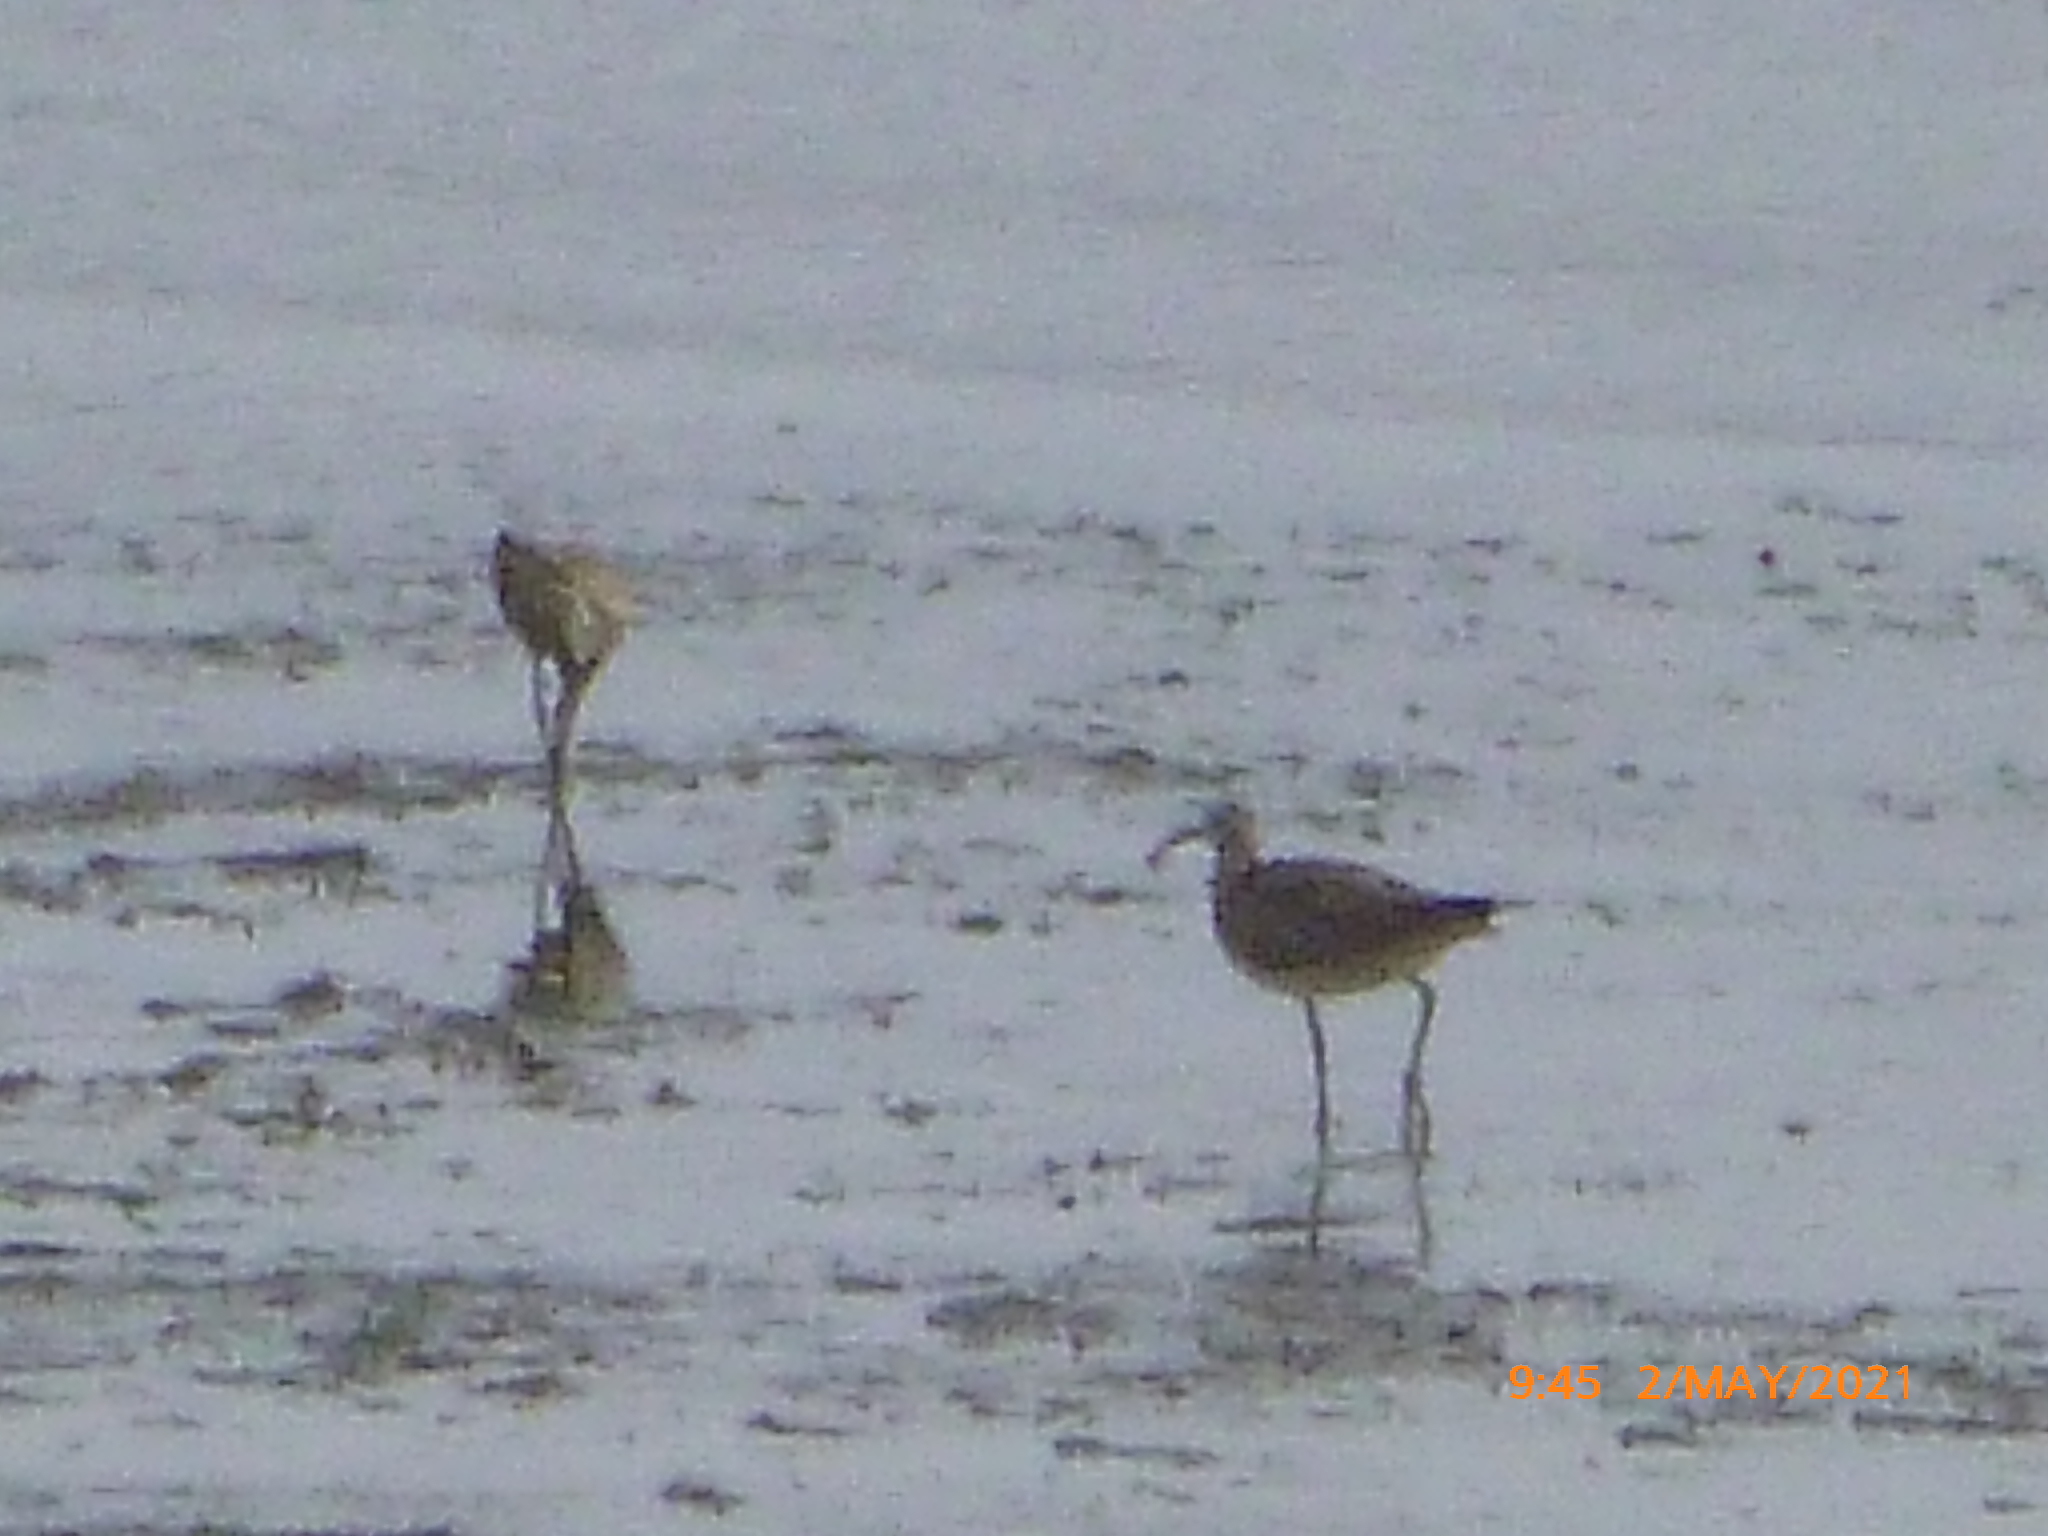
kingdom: Animalia
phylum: Chordata
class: Aves
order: Charadriiformes
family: Scolopacidae
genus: Numenius
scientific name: Numenius phaeopus
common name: Whimbrel
